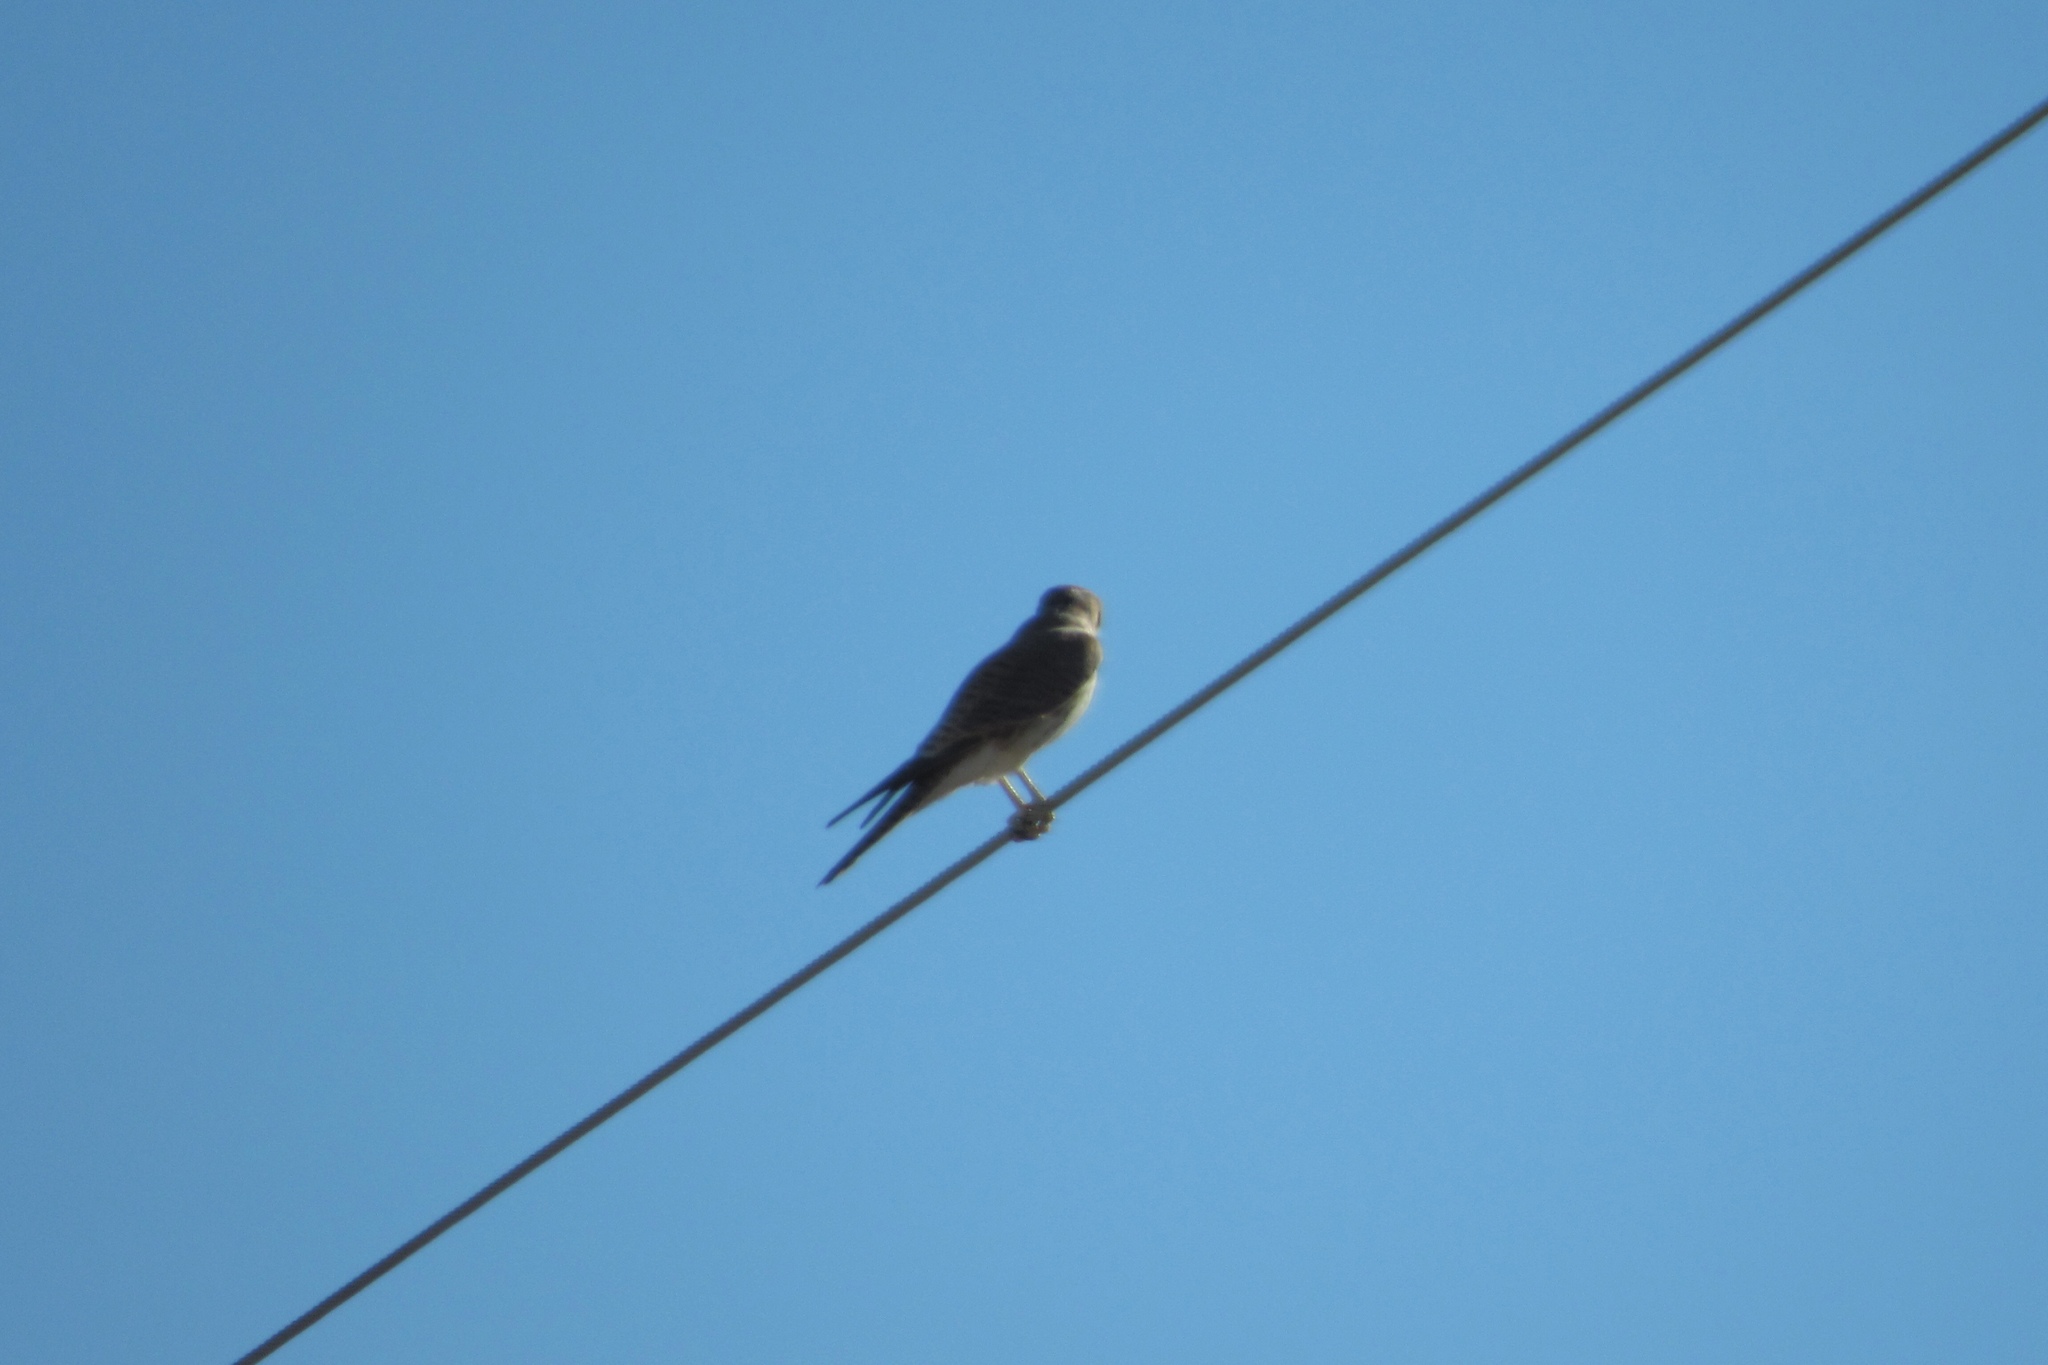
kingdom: Animalia
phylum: Chordata
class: Aves
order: Falconiformes
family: Falconidae
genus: Falco
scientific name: Falco sparverius
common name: American kestrel
